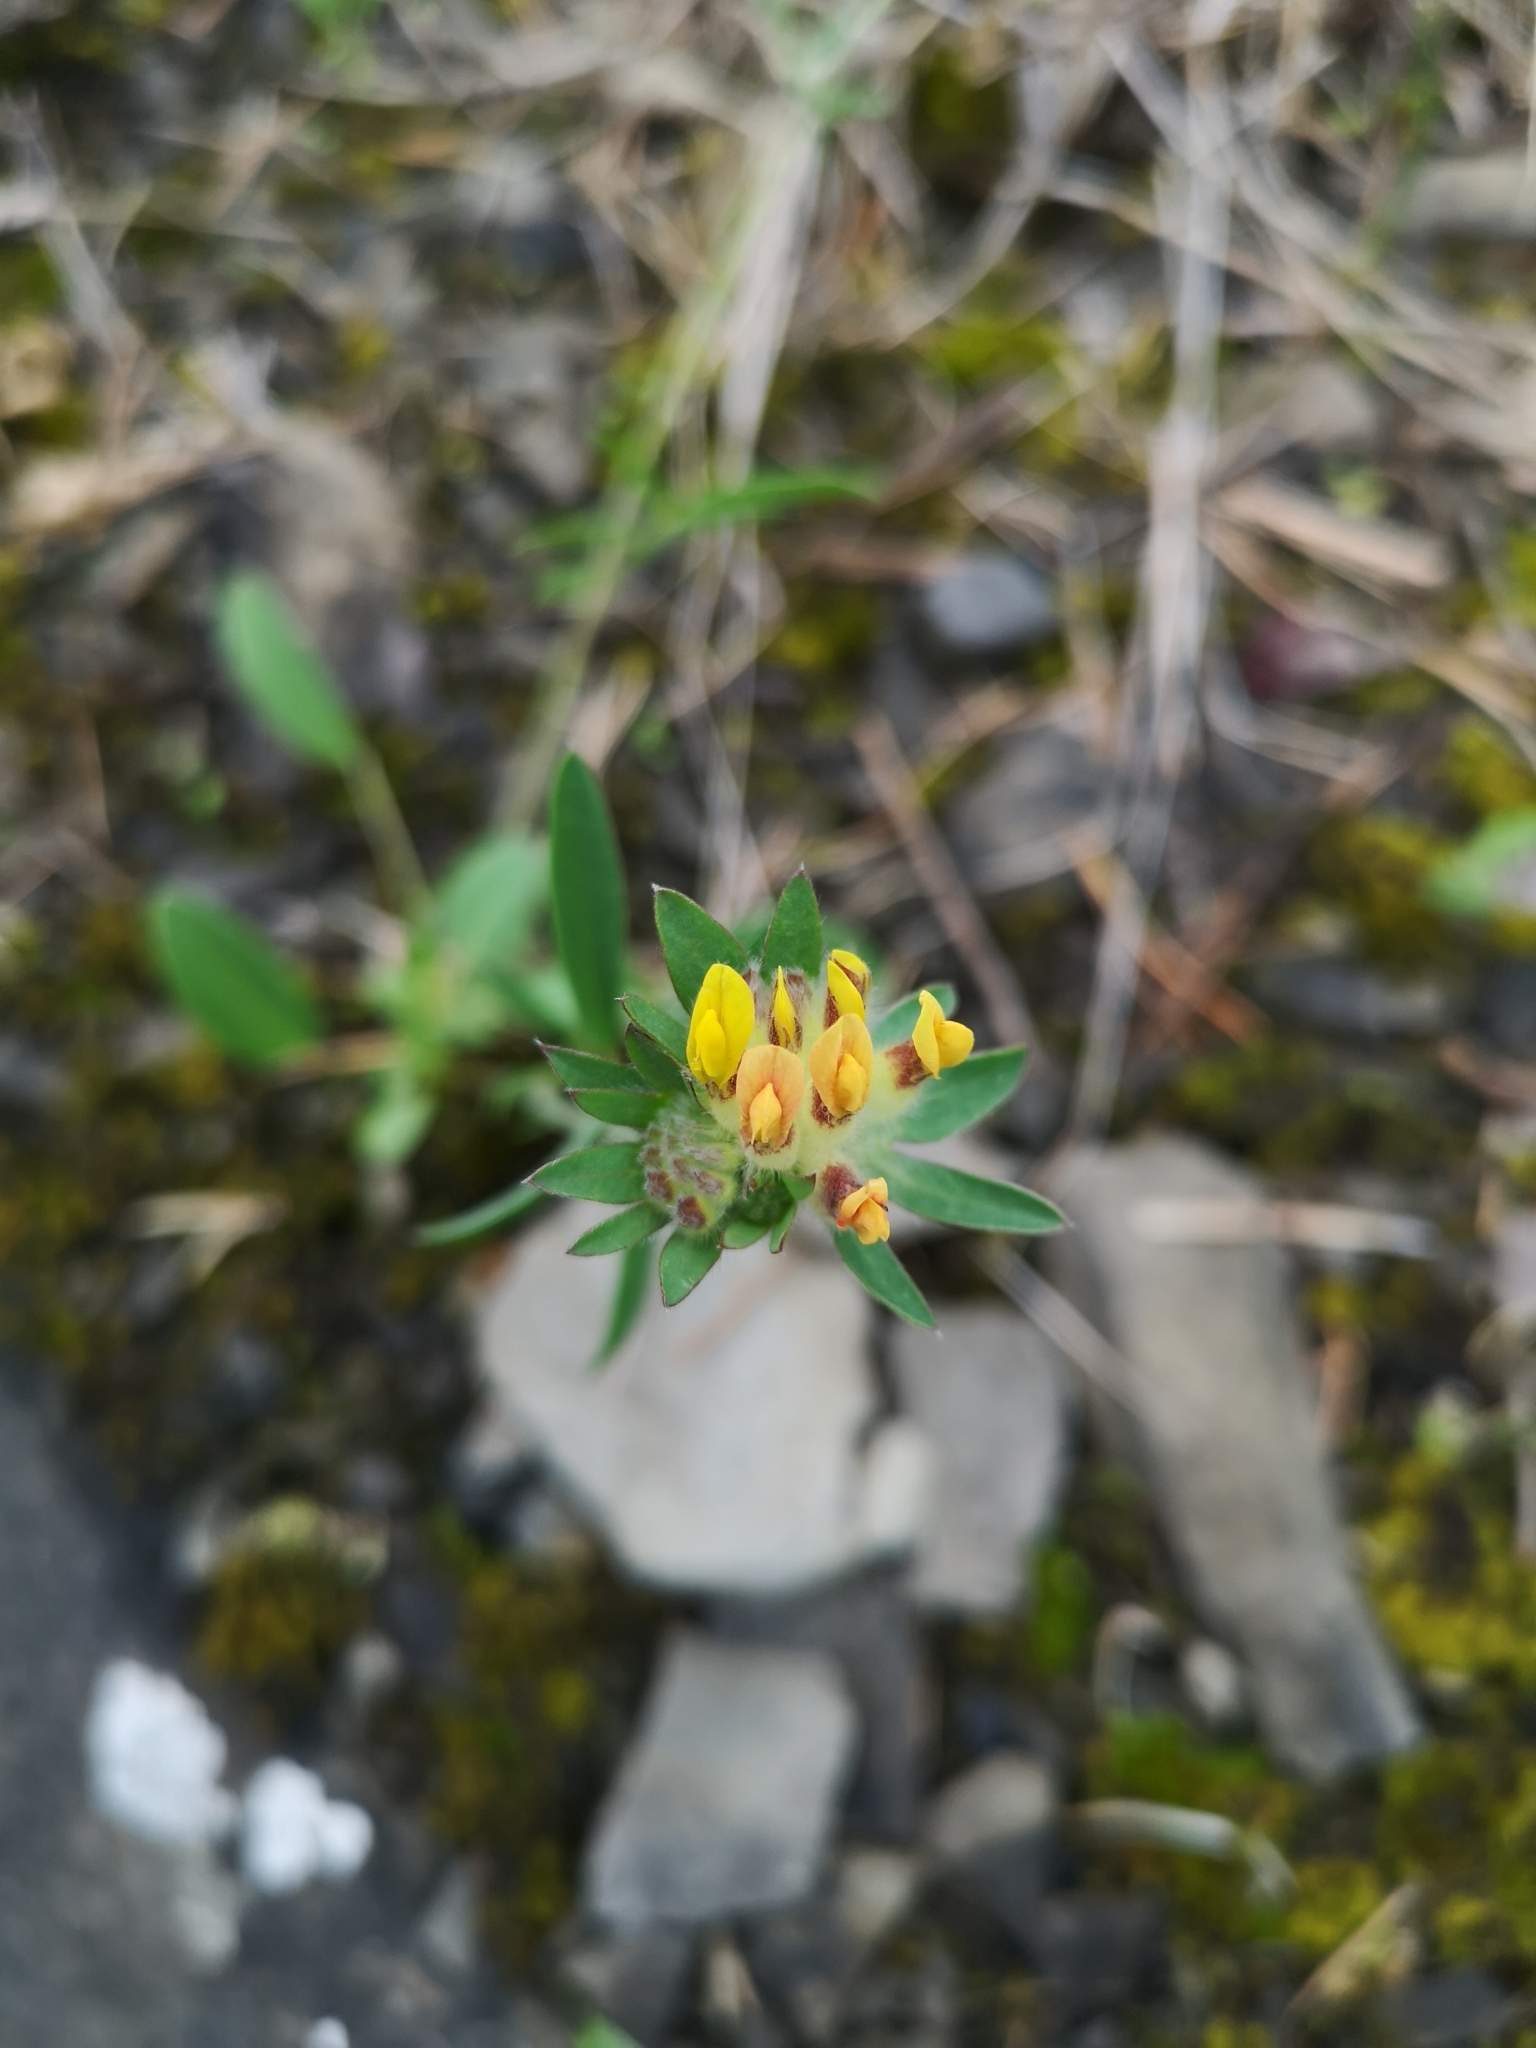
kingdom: Plantae
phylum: Tracheophyta
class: Magnoliopsida
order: Fabales
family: Fabaceae
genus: Anthyllis
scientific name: Anthyllis vulneraria
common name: Kidney vetch
